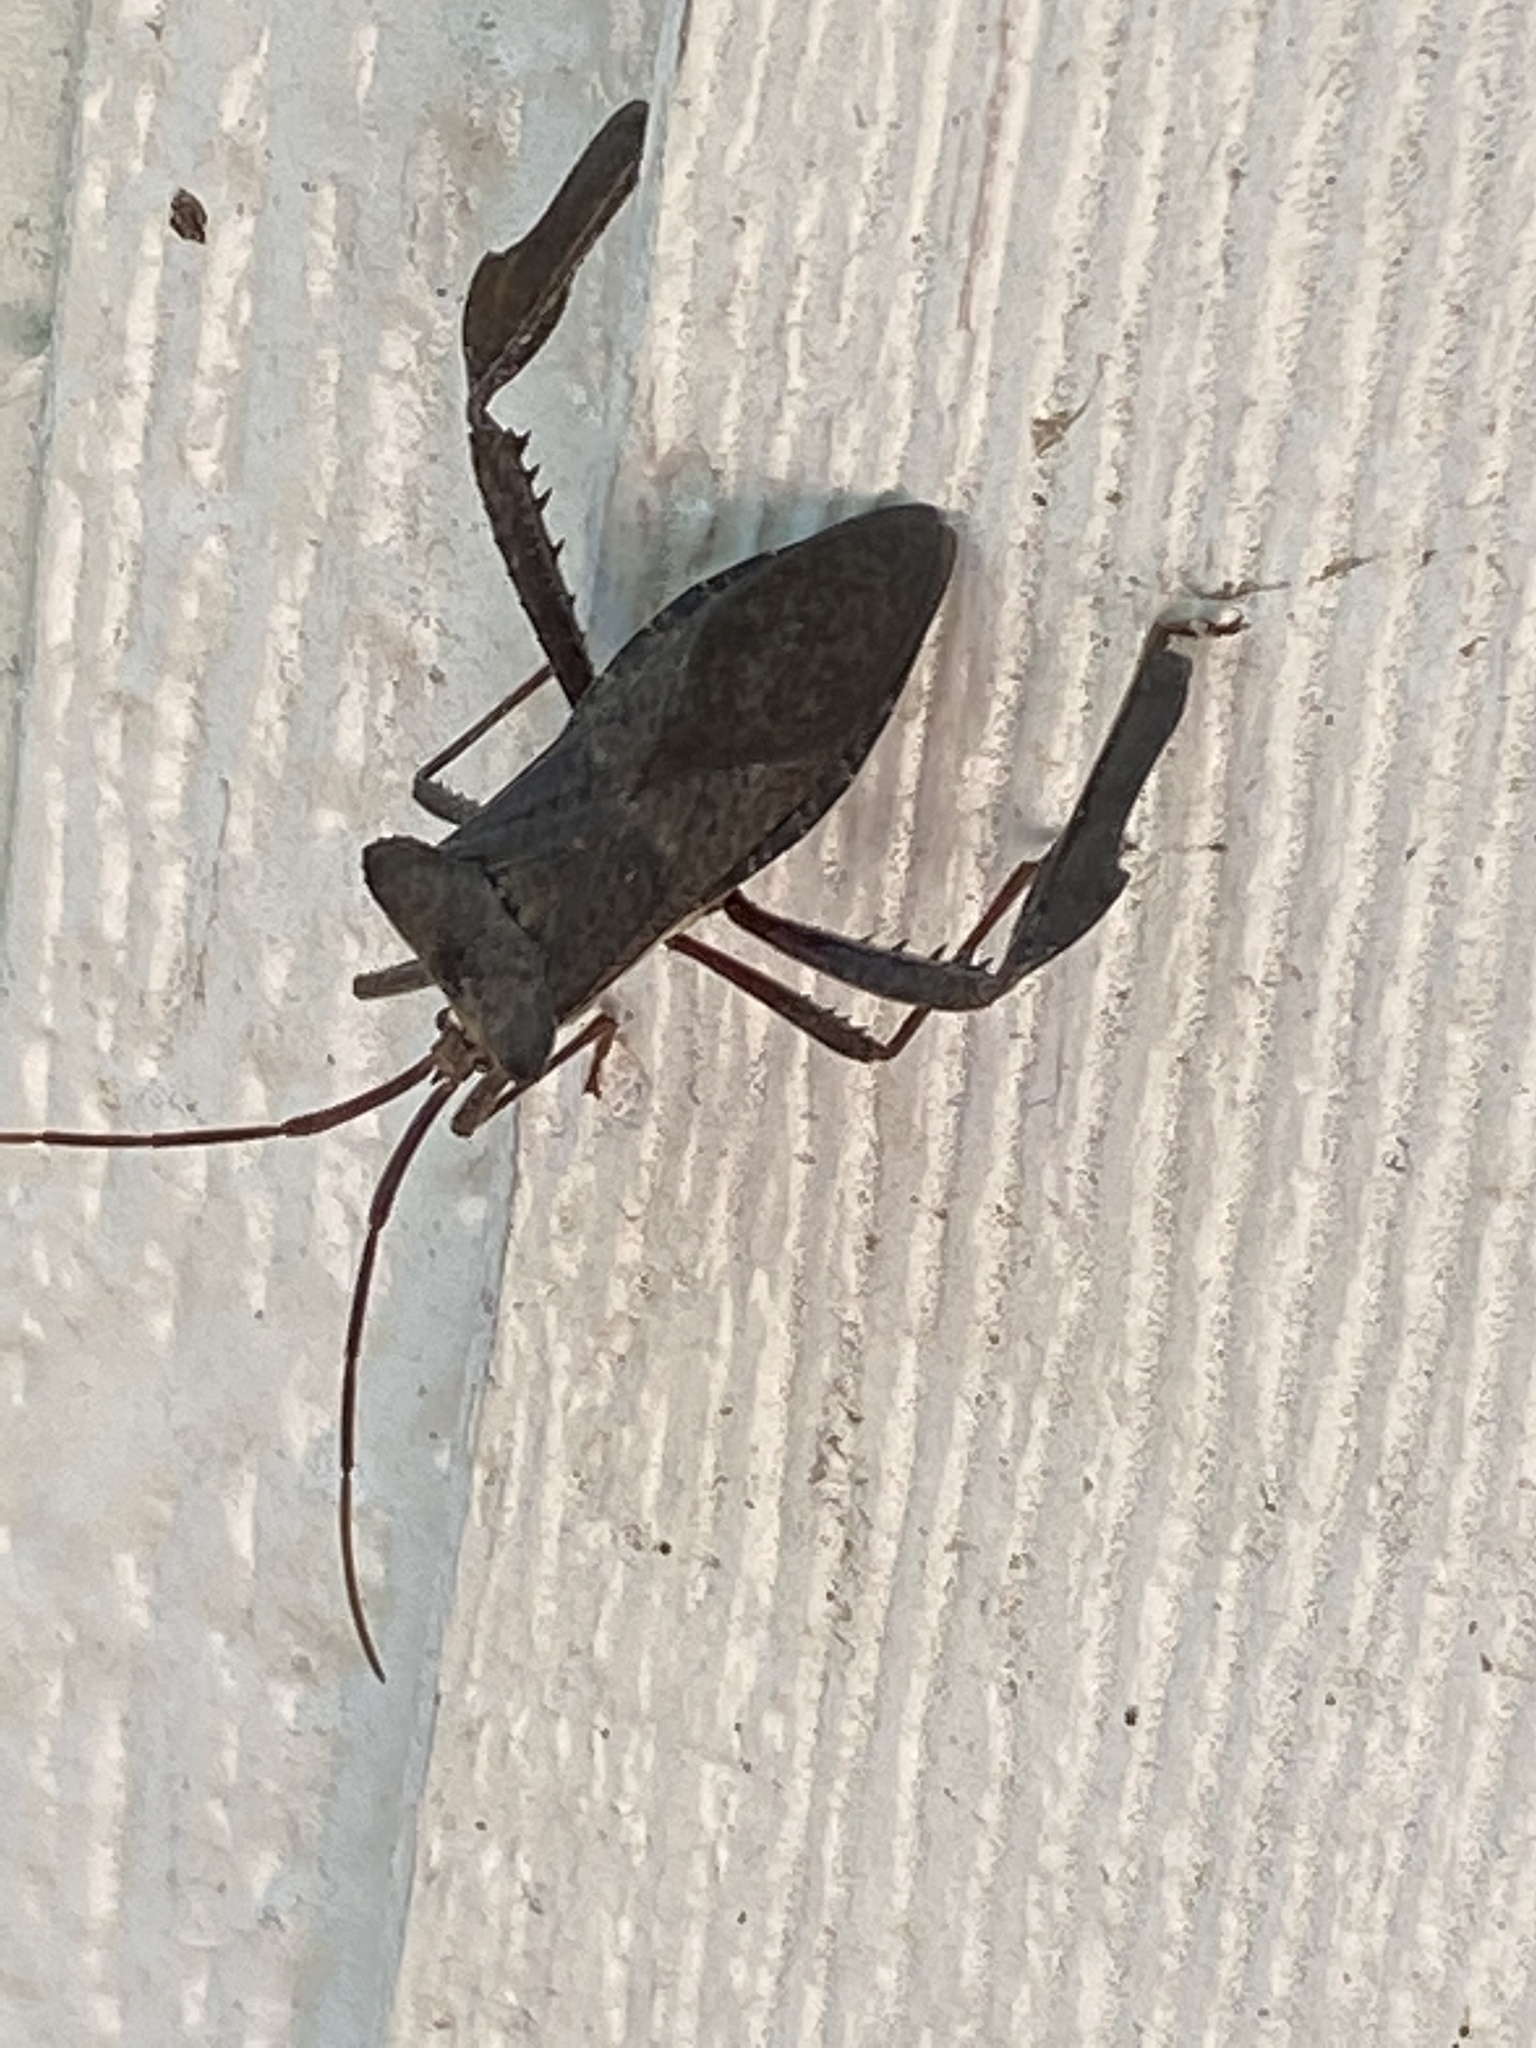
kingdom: Animalia
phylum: Arthropoda
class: Insecta
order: Hemiptera
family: Coreidae
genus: Acanthocephala
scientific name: Acanthocephala declivis
